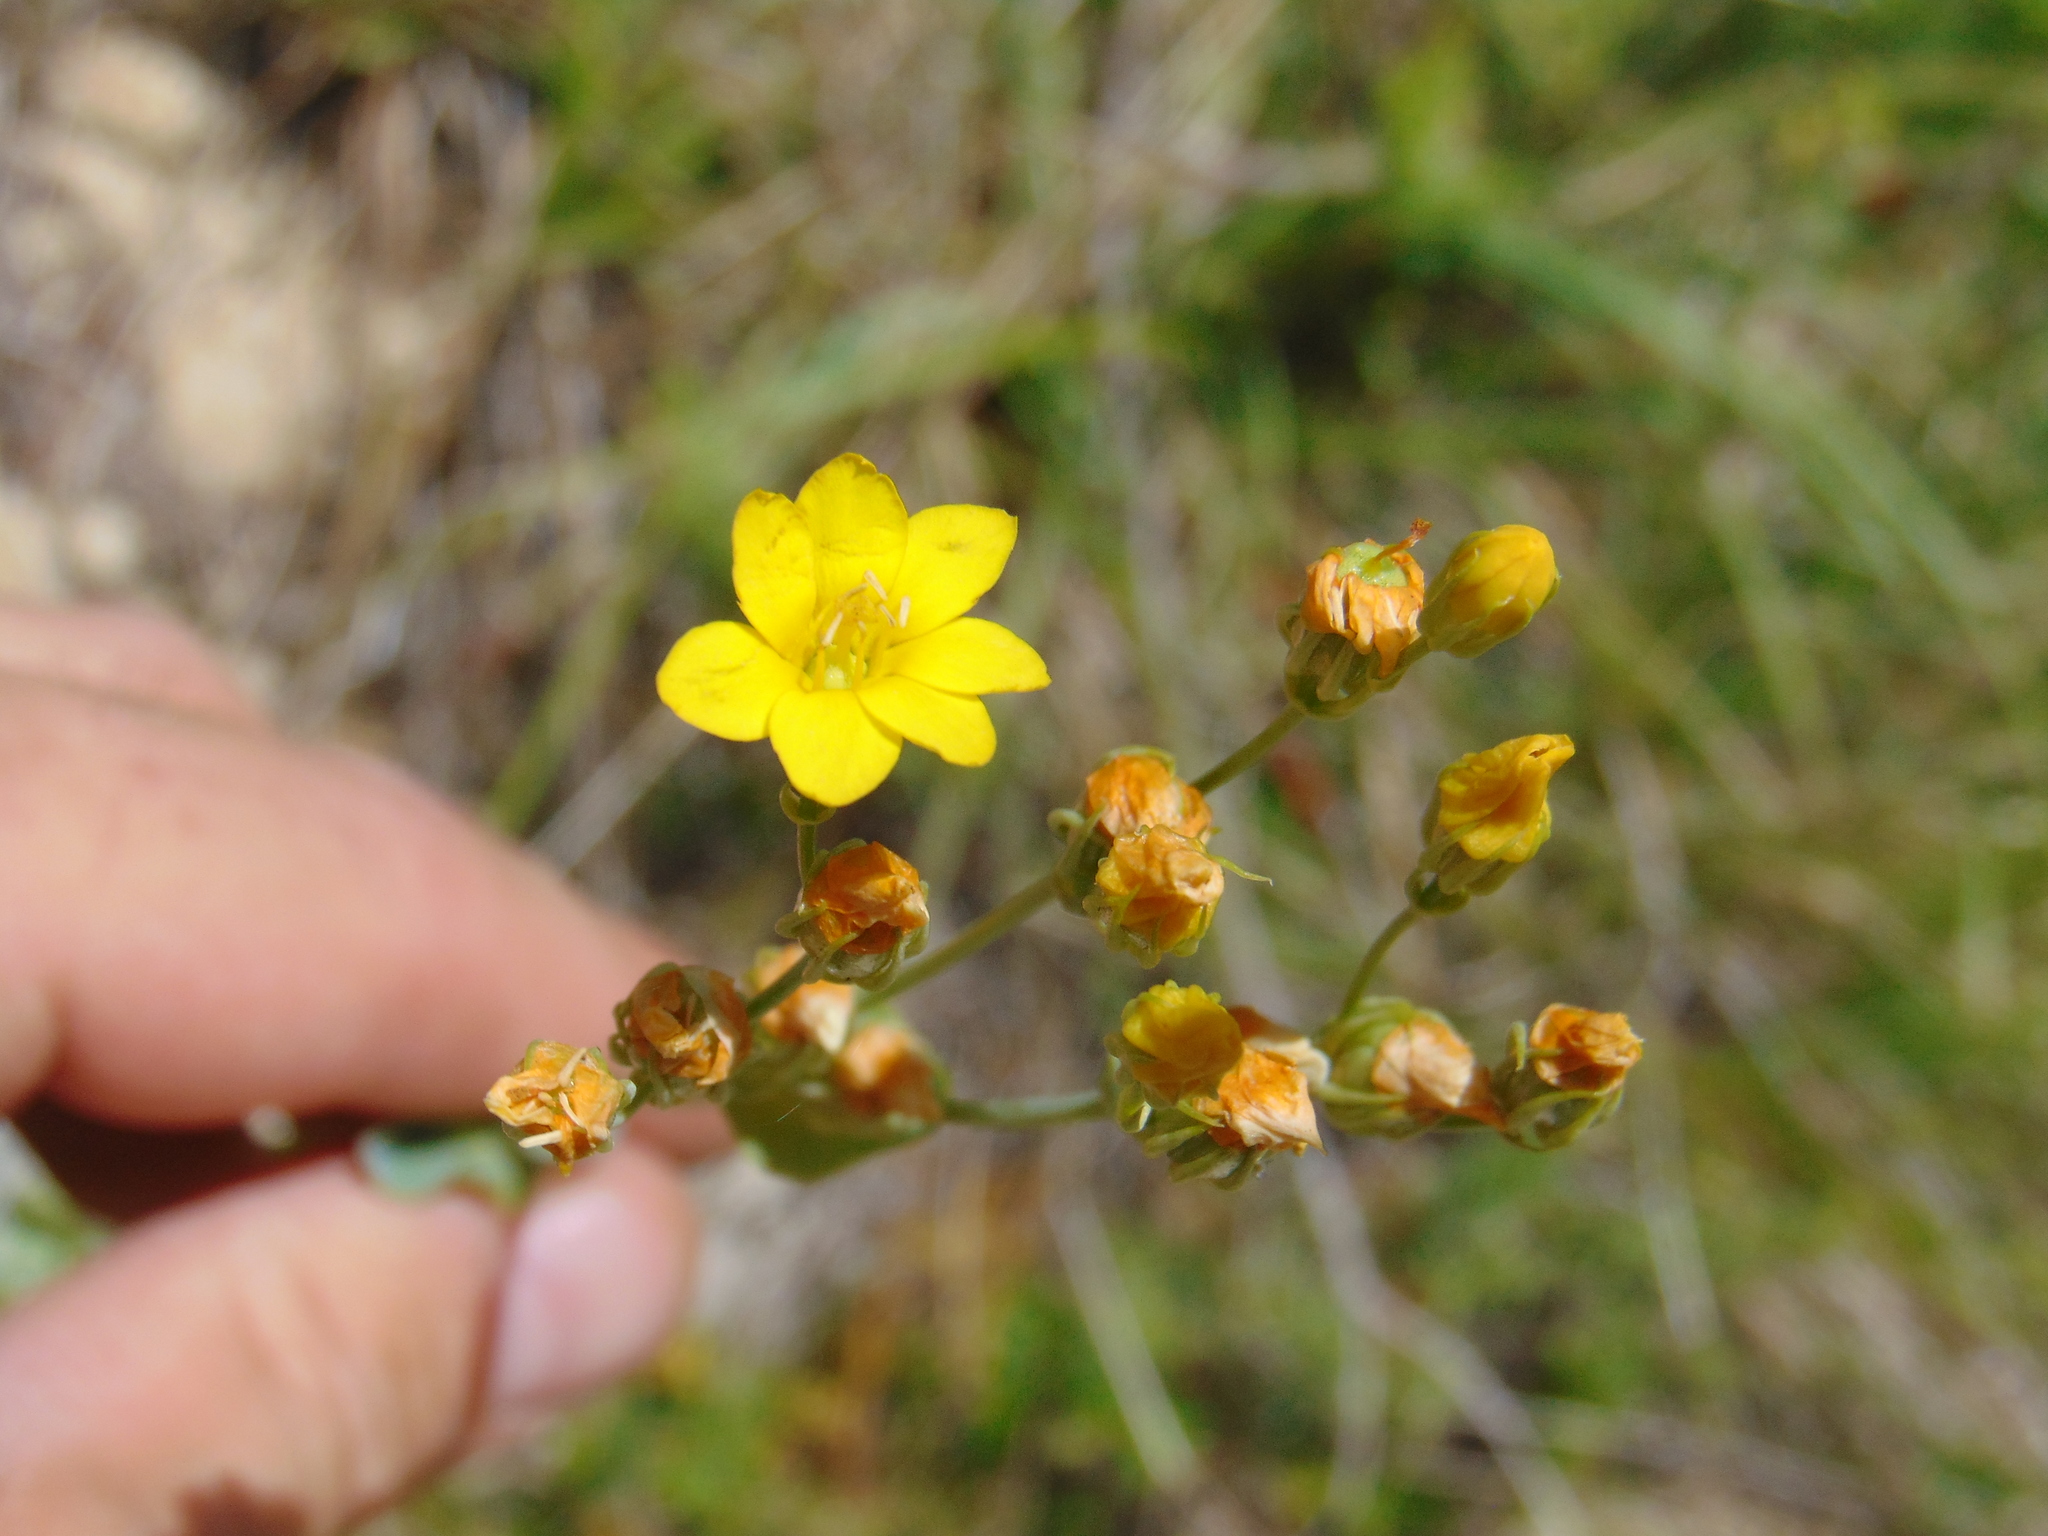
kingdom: Plantae
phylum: Tracheophyta
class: Magnoliopsida
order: Gentianales
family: Gentianaceae
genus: Blackstonia
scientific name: Blackstonia perfoliata
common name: Yellow-wort
